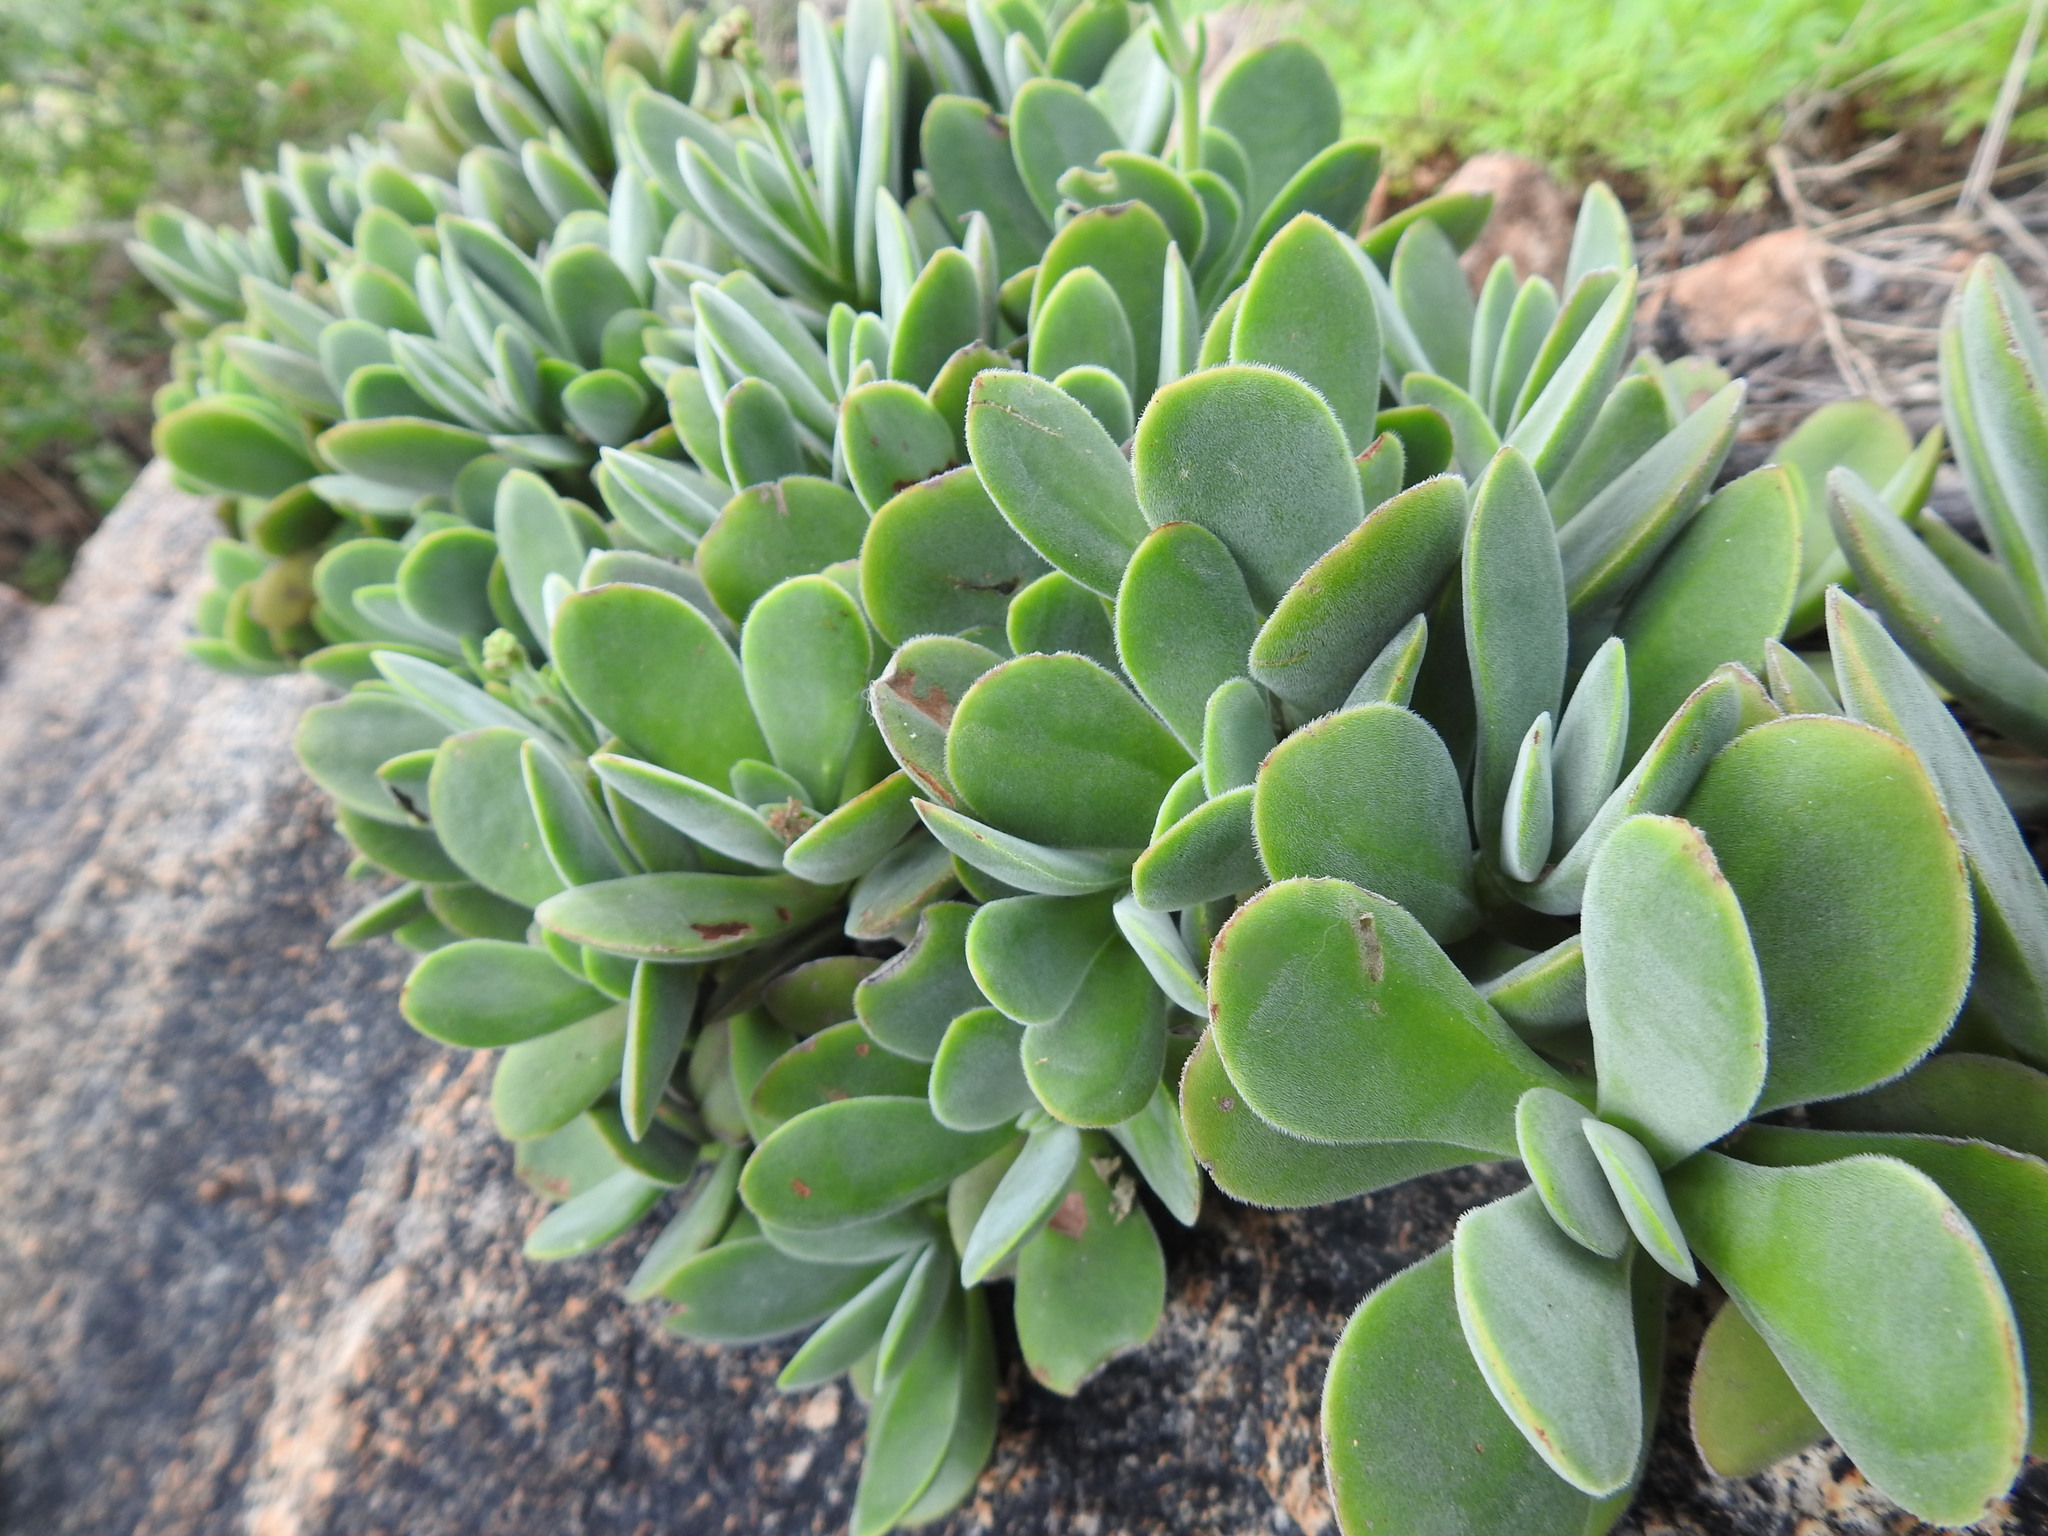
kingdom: Plantae
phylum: Tracheophyta
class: Magnoliopsida
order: Saxifragales
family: Crassulaceae
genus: Crassula
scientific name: Crassula globularioides
